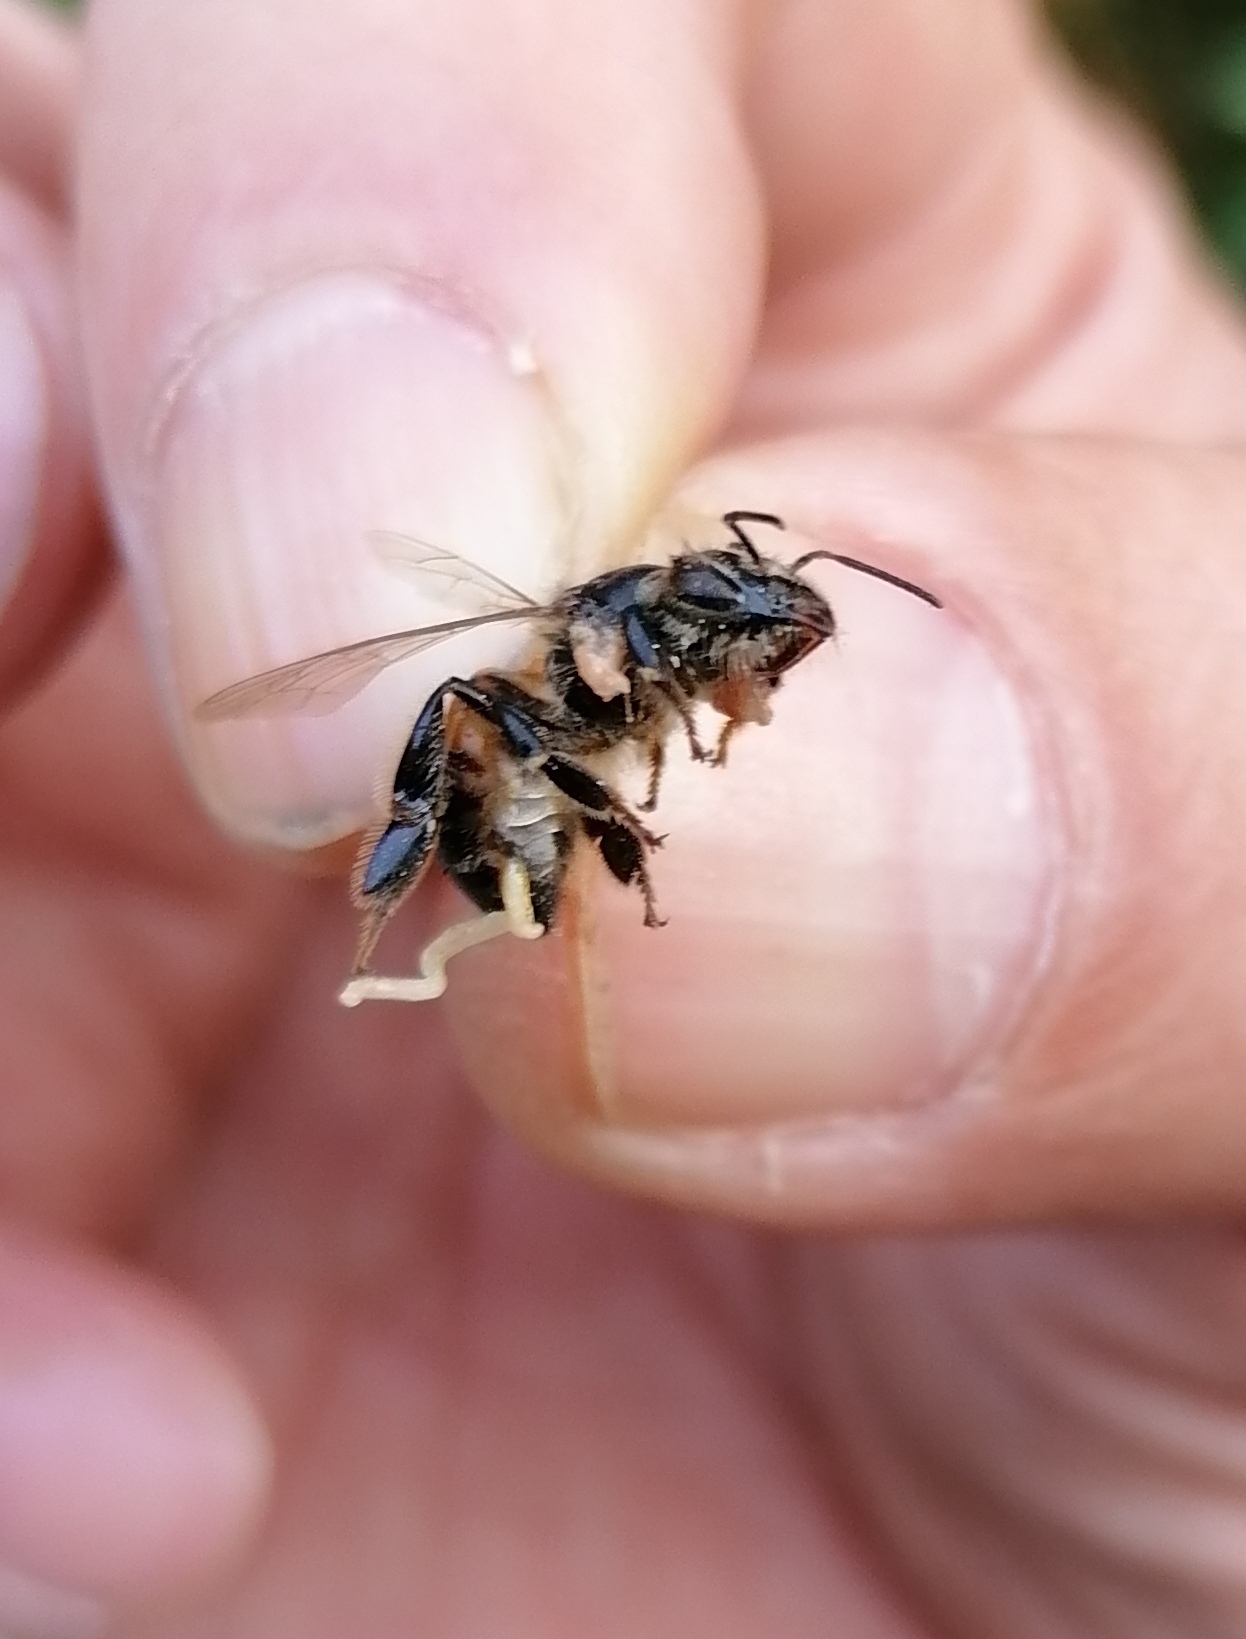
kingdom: Animalia
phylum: Arthropoda
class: Insecta
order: Hymenoptera
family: Apidae
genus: Apis
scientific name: Apis mellifera
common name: Honey bee
